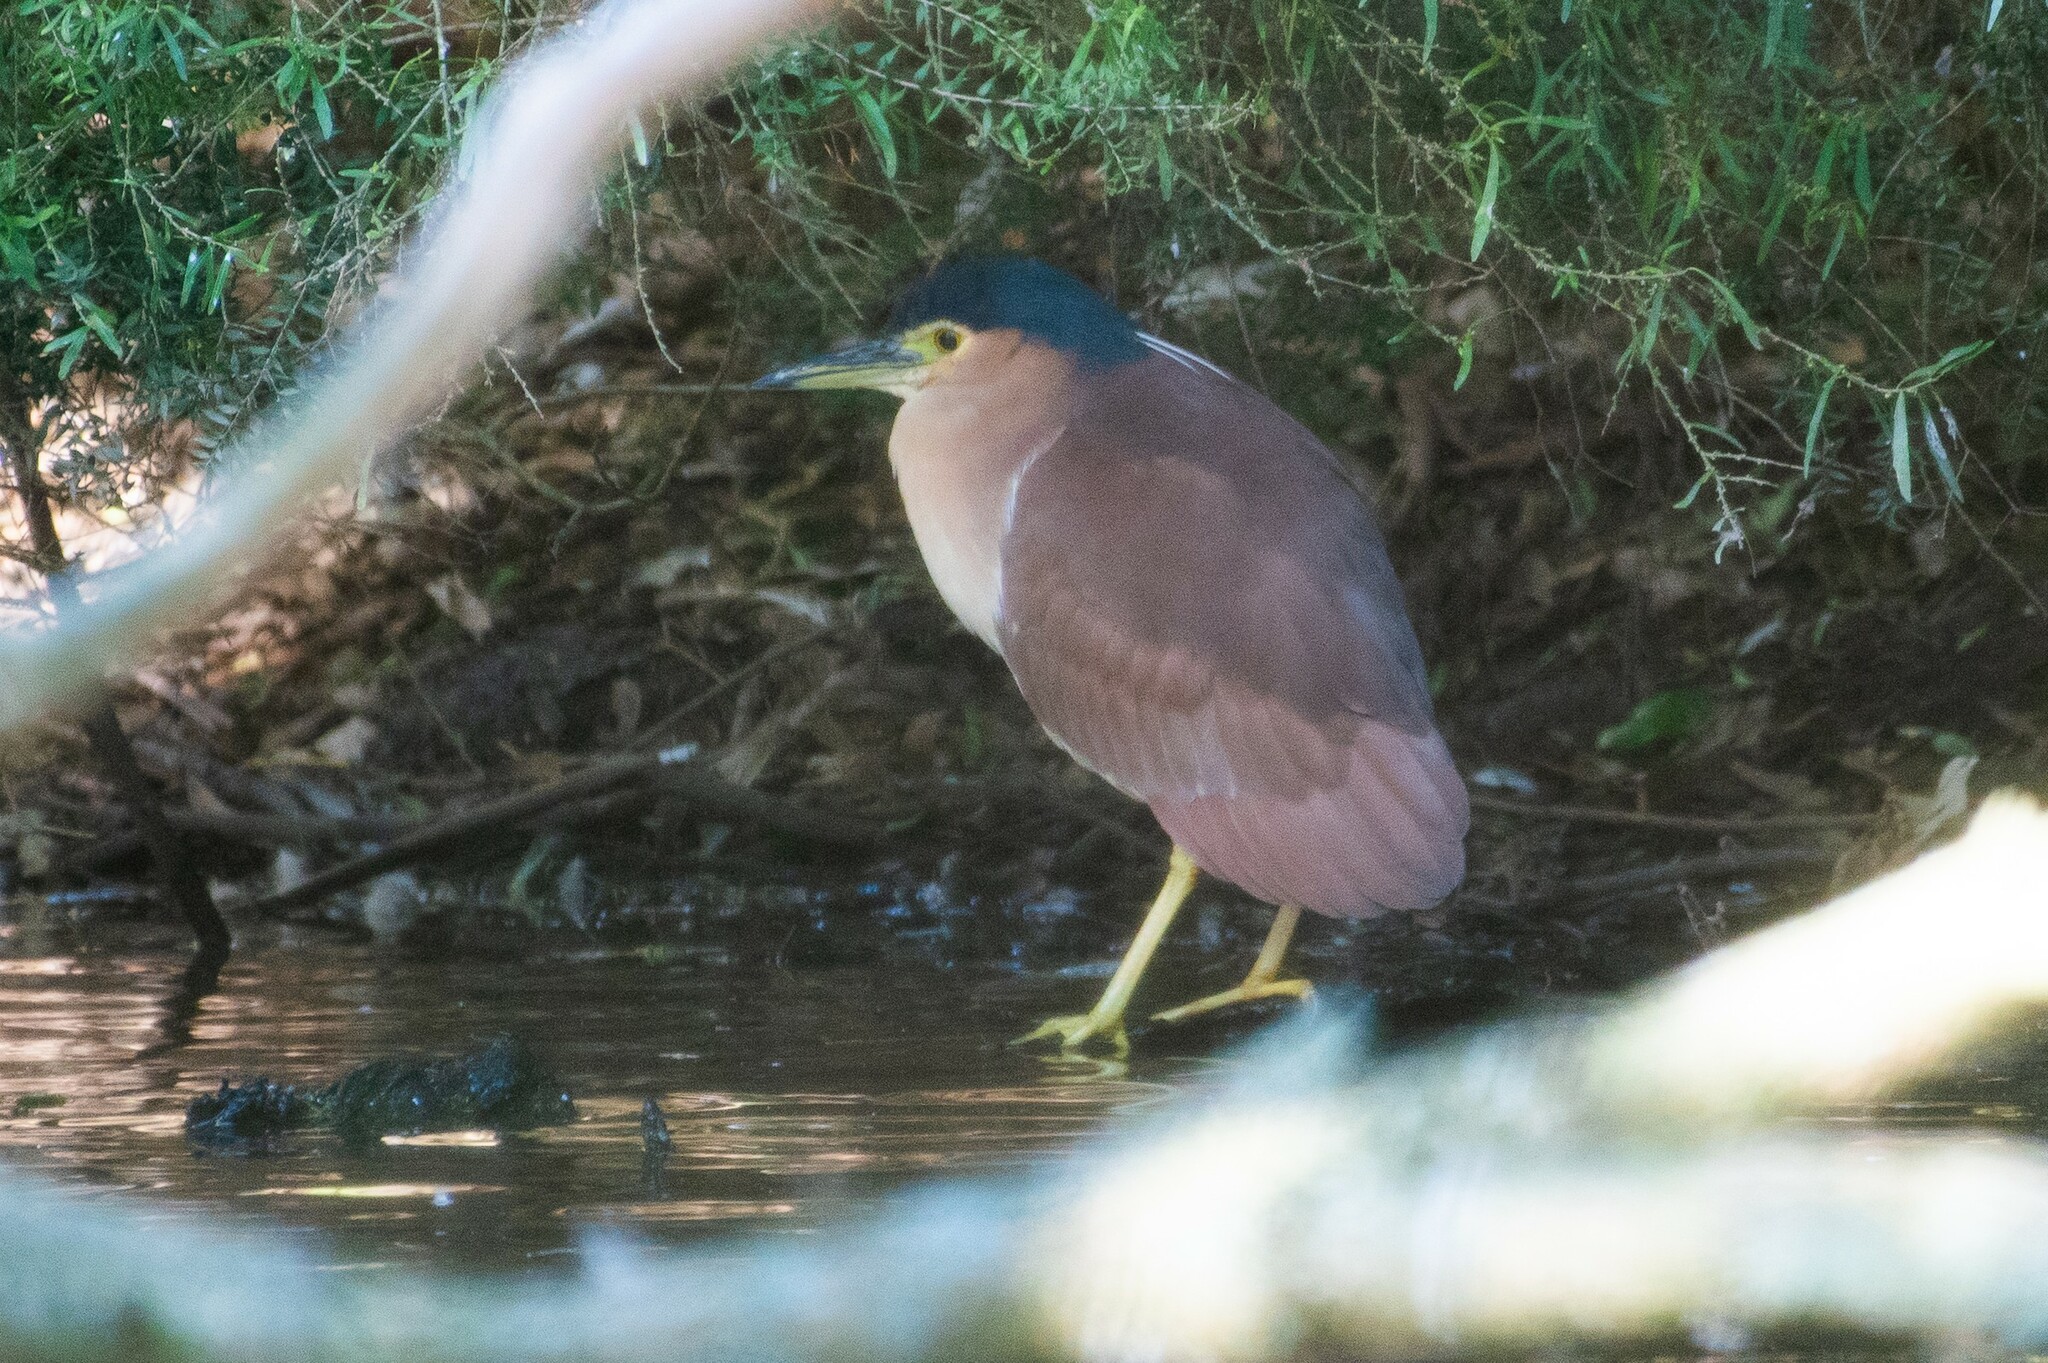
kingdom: Animalia
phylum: Chordata
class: Aves
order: Pelecaniformes
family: Ardeidae
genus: Nycticorax
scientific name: Nycticorax caledonicus
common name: Rufous night-heron
